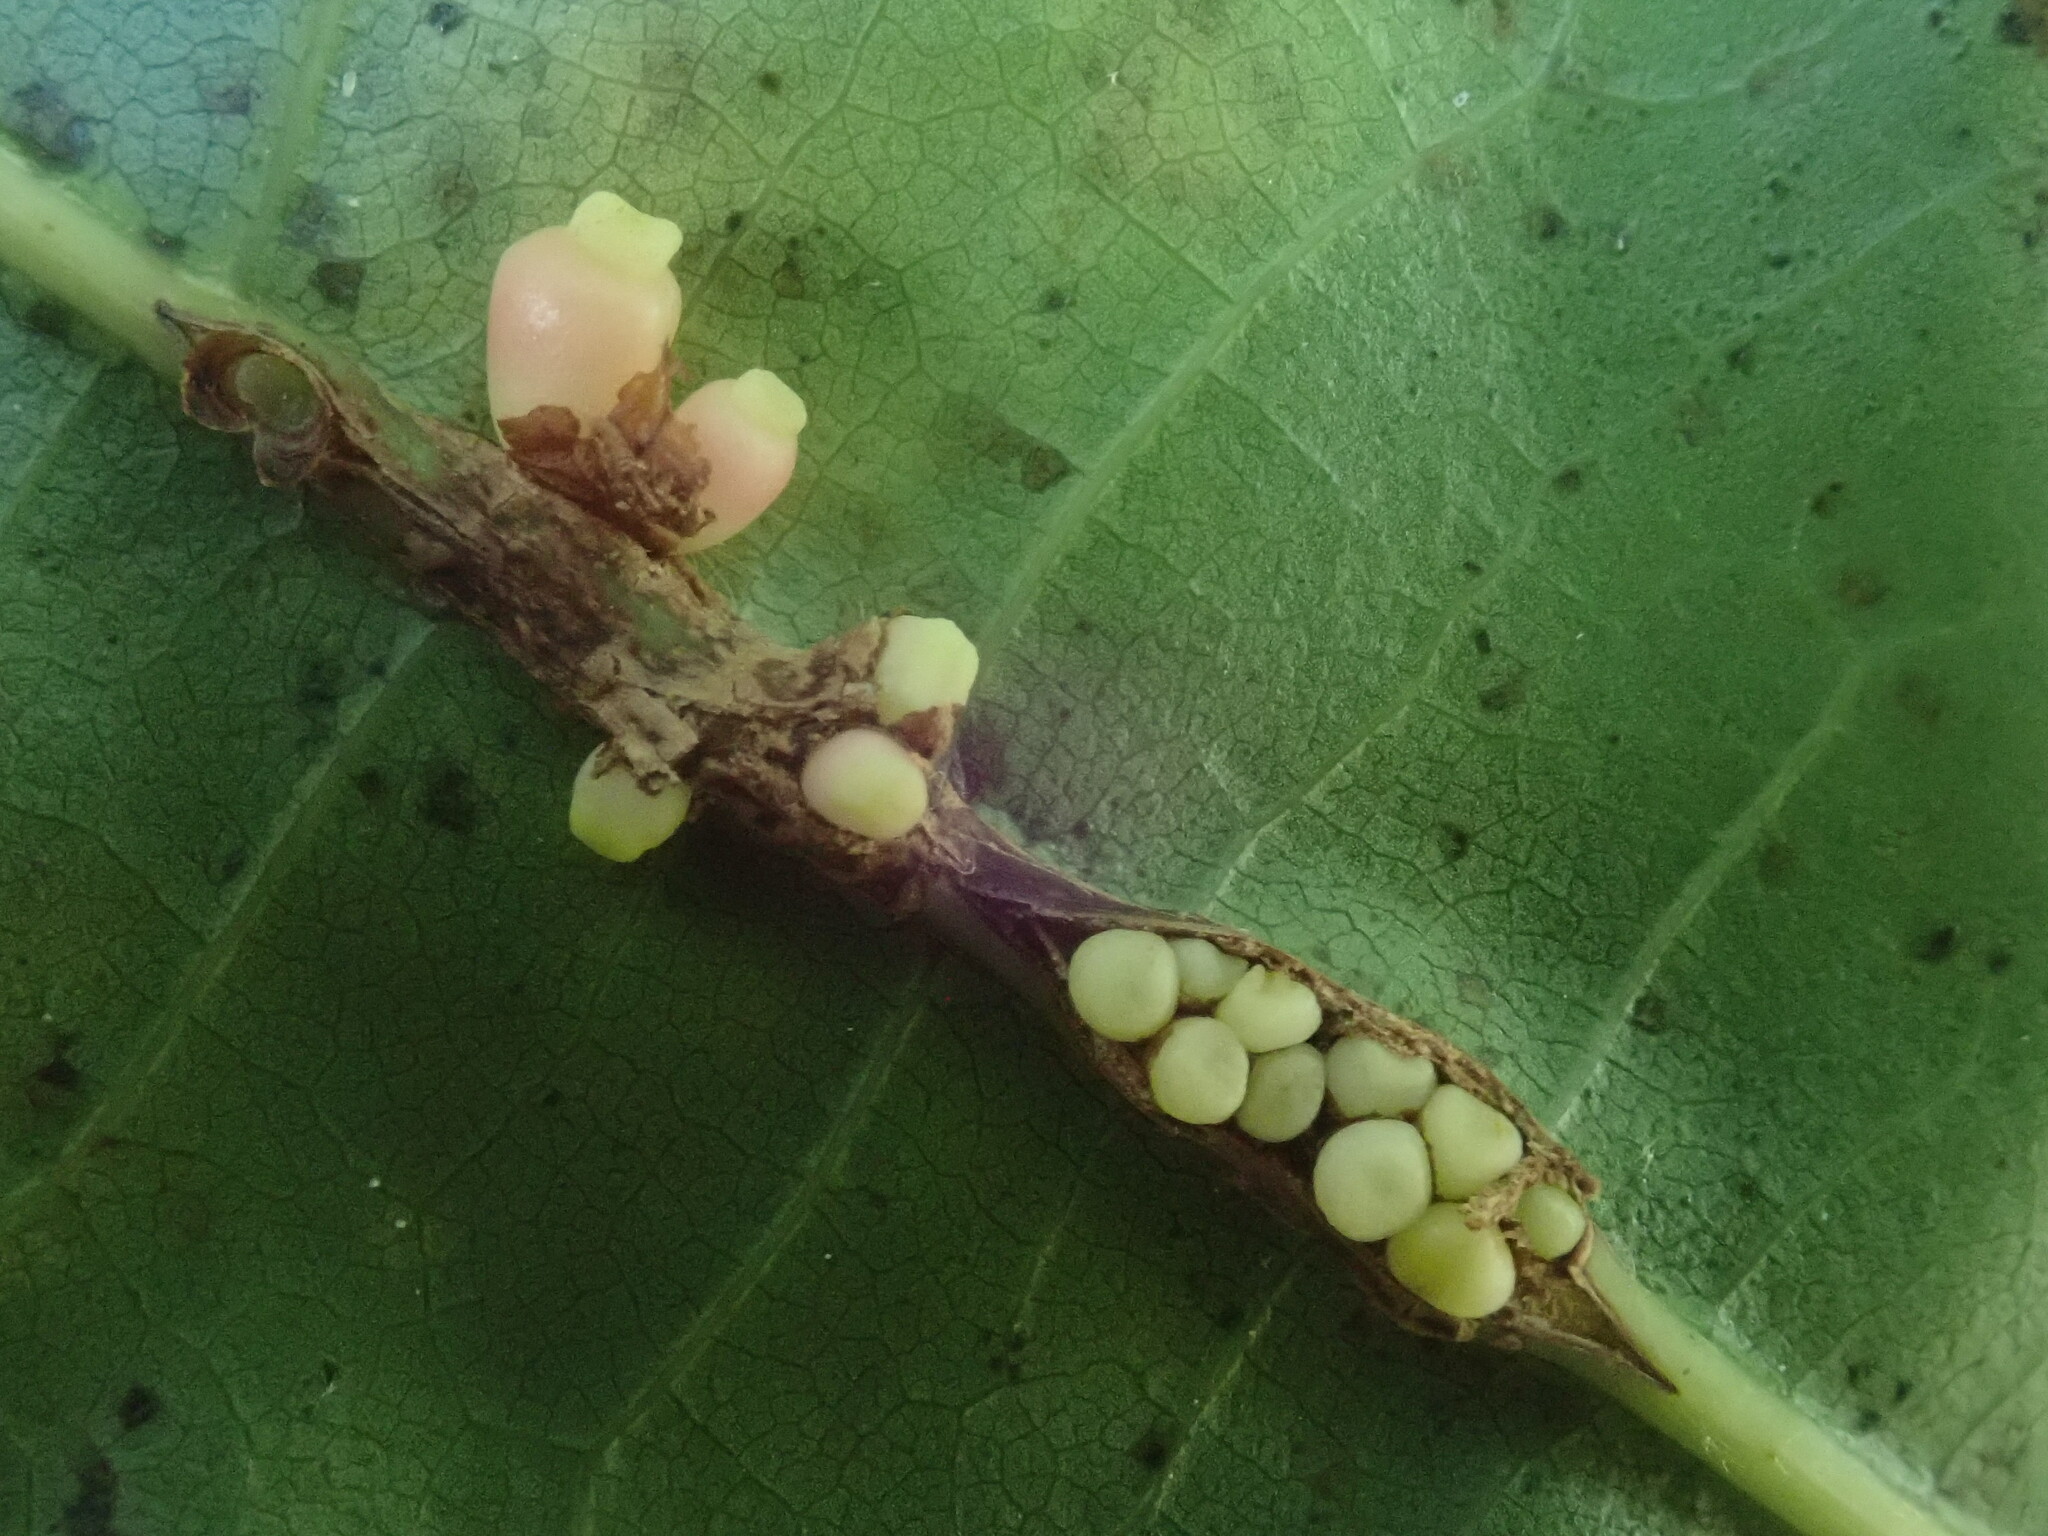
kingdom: Animalia
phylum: Arthropoda
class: Insecta
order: Hymenoptera
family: Cynipidae
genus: Kokkocynips
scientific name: Kokkocynips decidua
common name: Oak wheat gall
